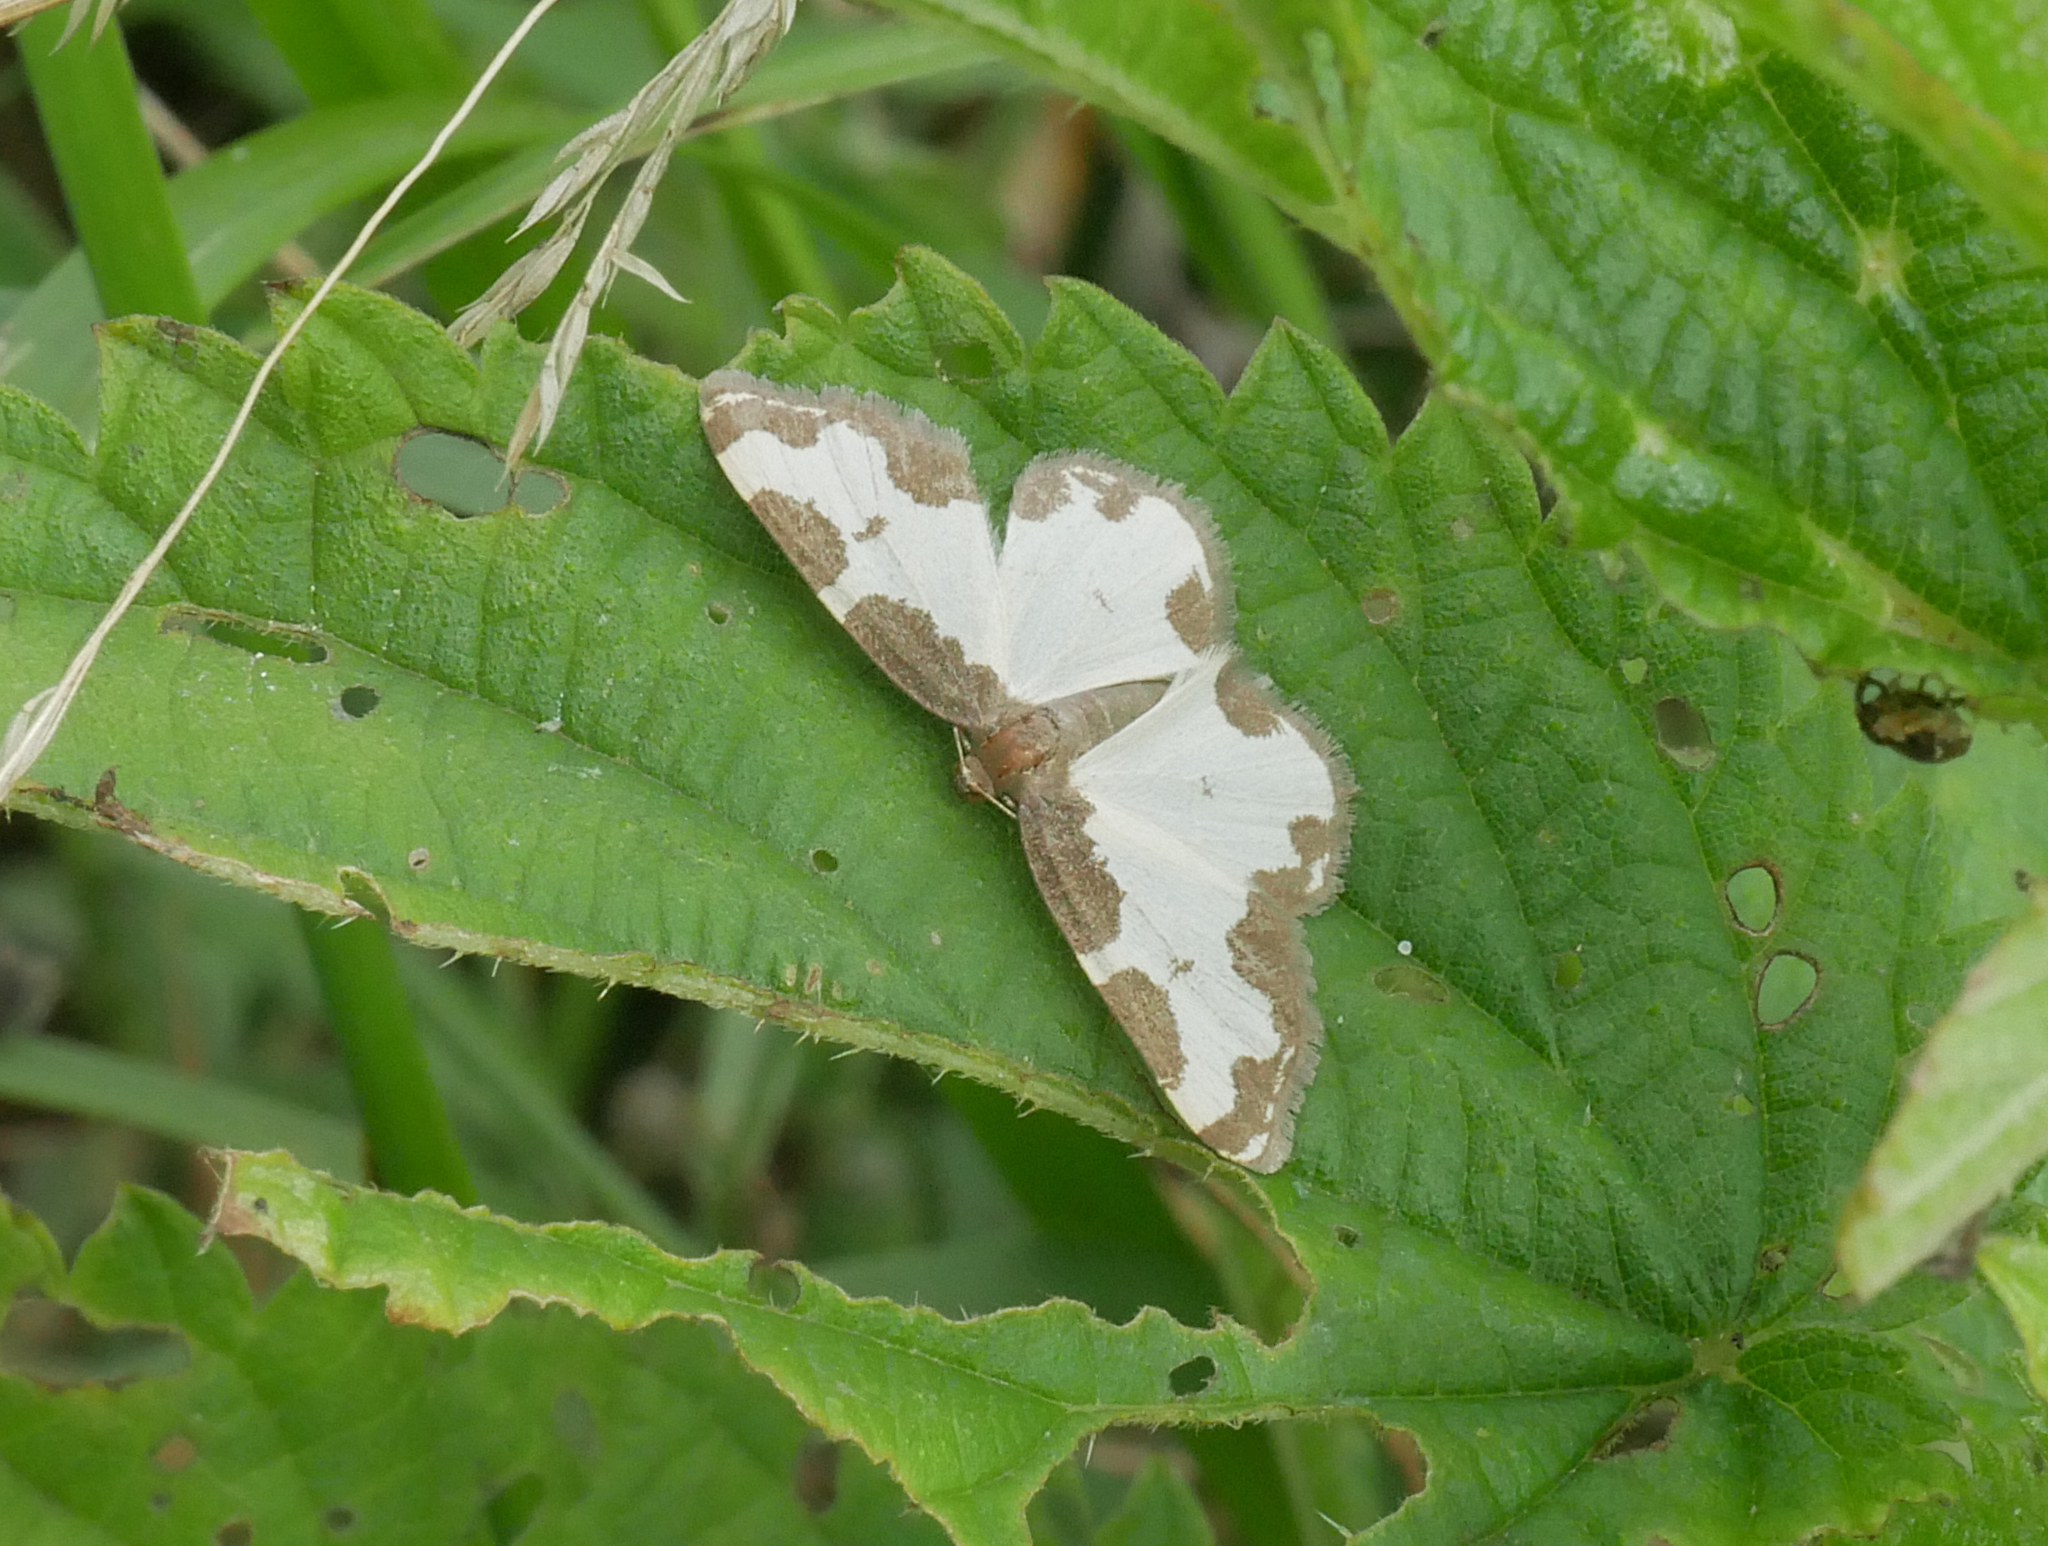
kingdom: Animalia
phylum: Arthropoda
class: Insecta
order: Lepidoptera
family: Geometridae
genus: Lomaspilis
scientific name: Lomaspilis marginata
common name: Clouded border
